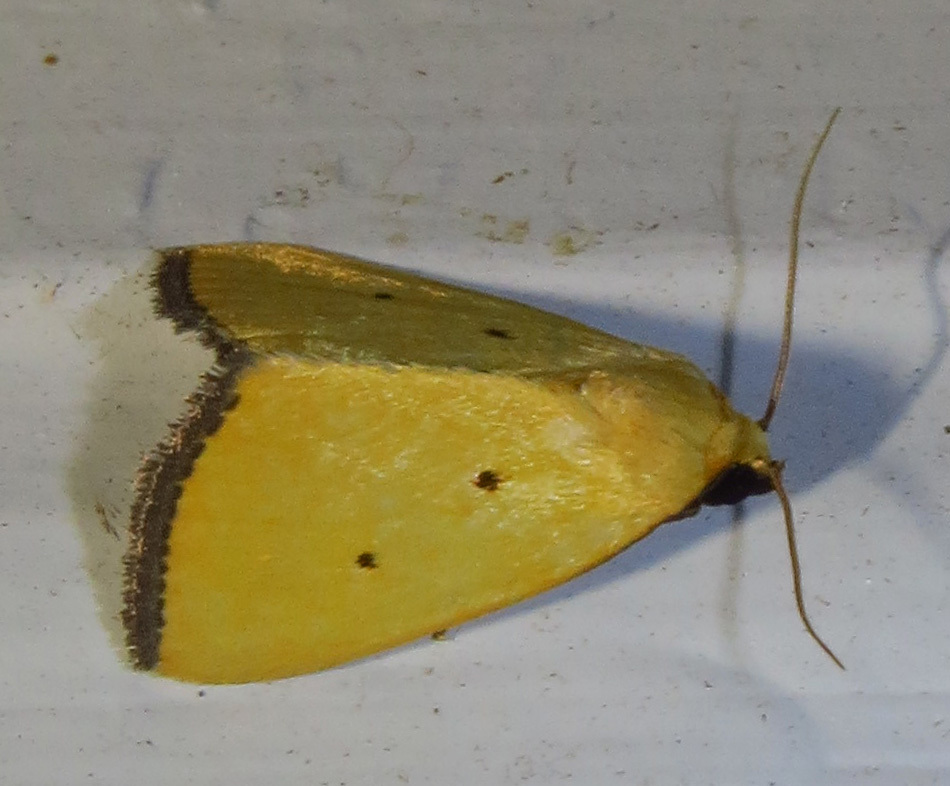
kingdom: Animalia
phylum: Arthropoda
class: Insecta
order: Lepidoptera
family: Noctuidae
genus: Marimatha
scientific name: Marimatha nigrofimbria
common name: Black-bordered lemon moth
